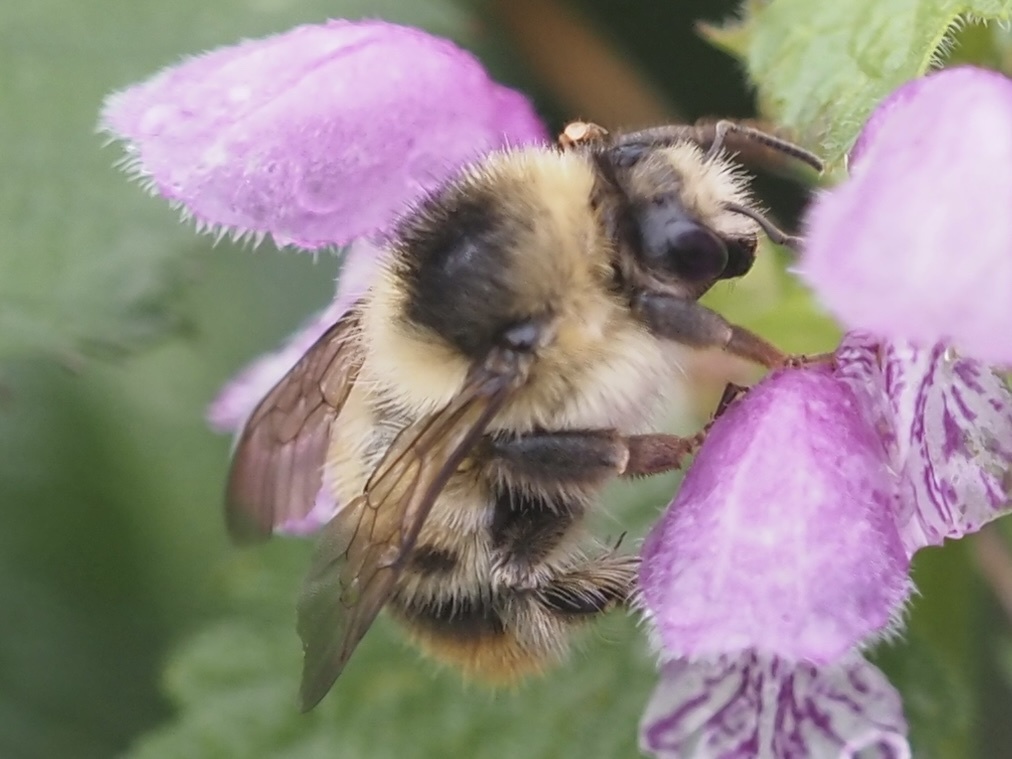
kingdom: Animalia
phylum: Arthropoda
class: Insecta
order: Hymenoptera
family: Apidae
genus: Bombus
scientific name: Bombus sylvarum
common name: Shrill carder bee
